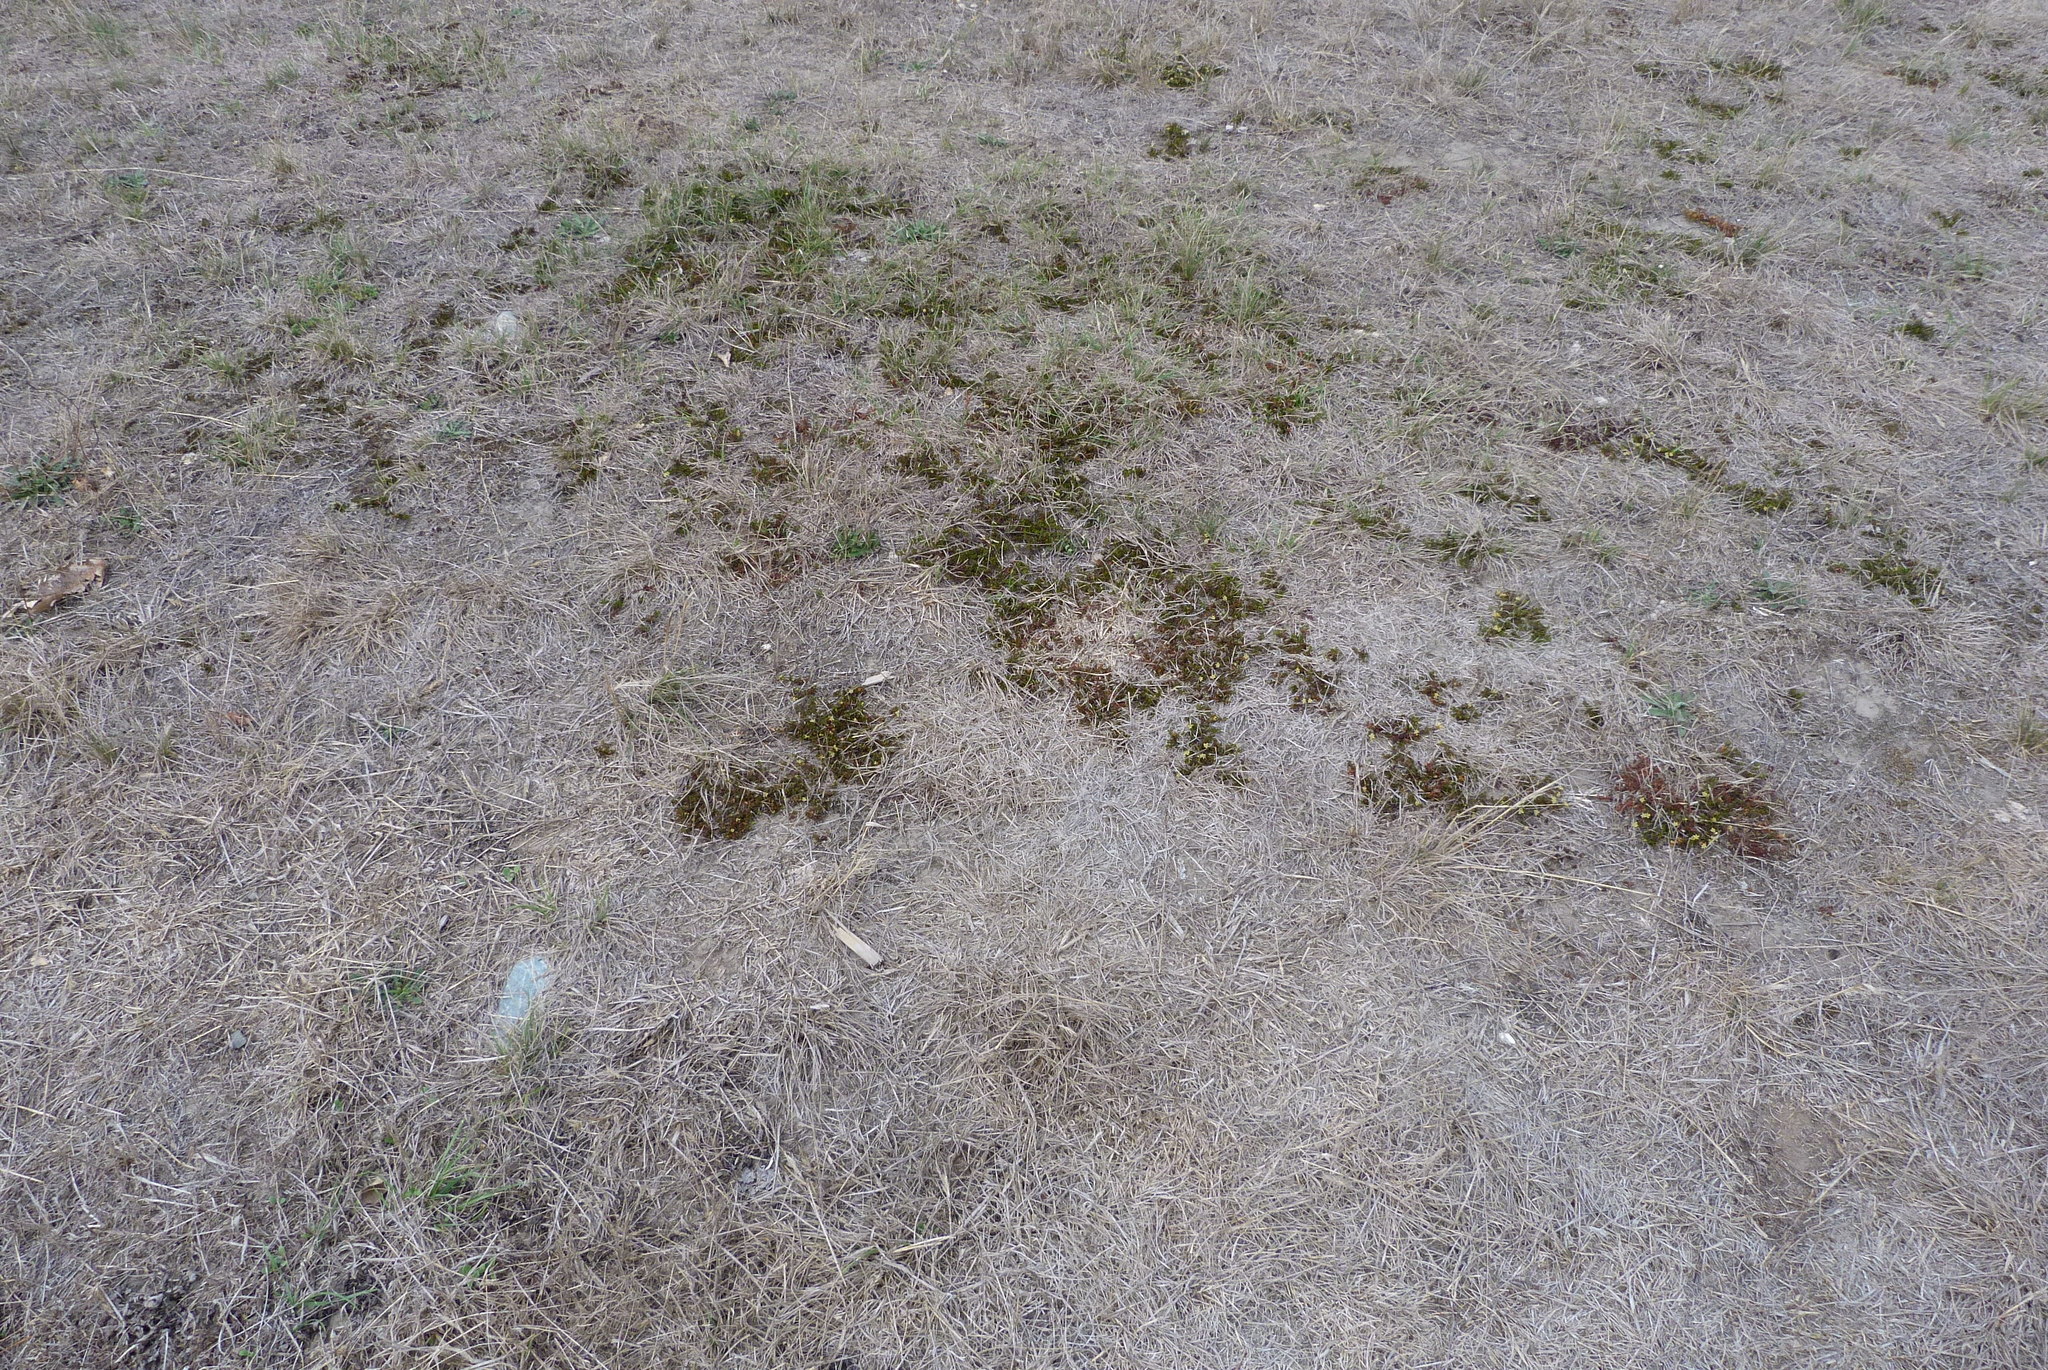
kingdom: Plantae
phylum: Tracheophyta
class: Magnoliopsida
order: Caryophyllales
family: Polygonaceae
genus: Muehlenbeckia
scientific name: Muehlenbeckia axillaris
